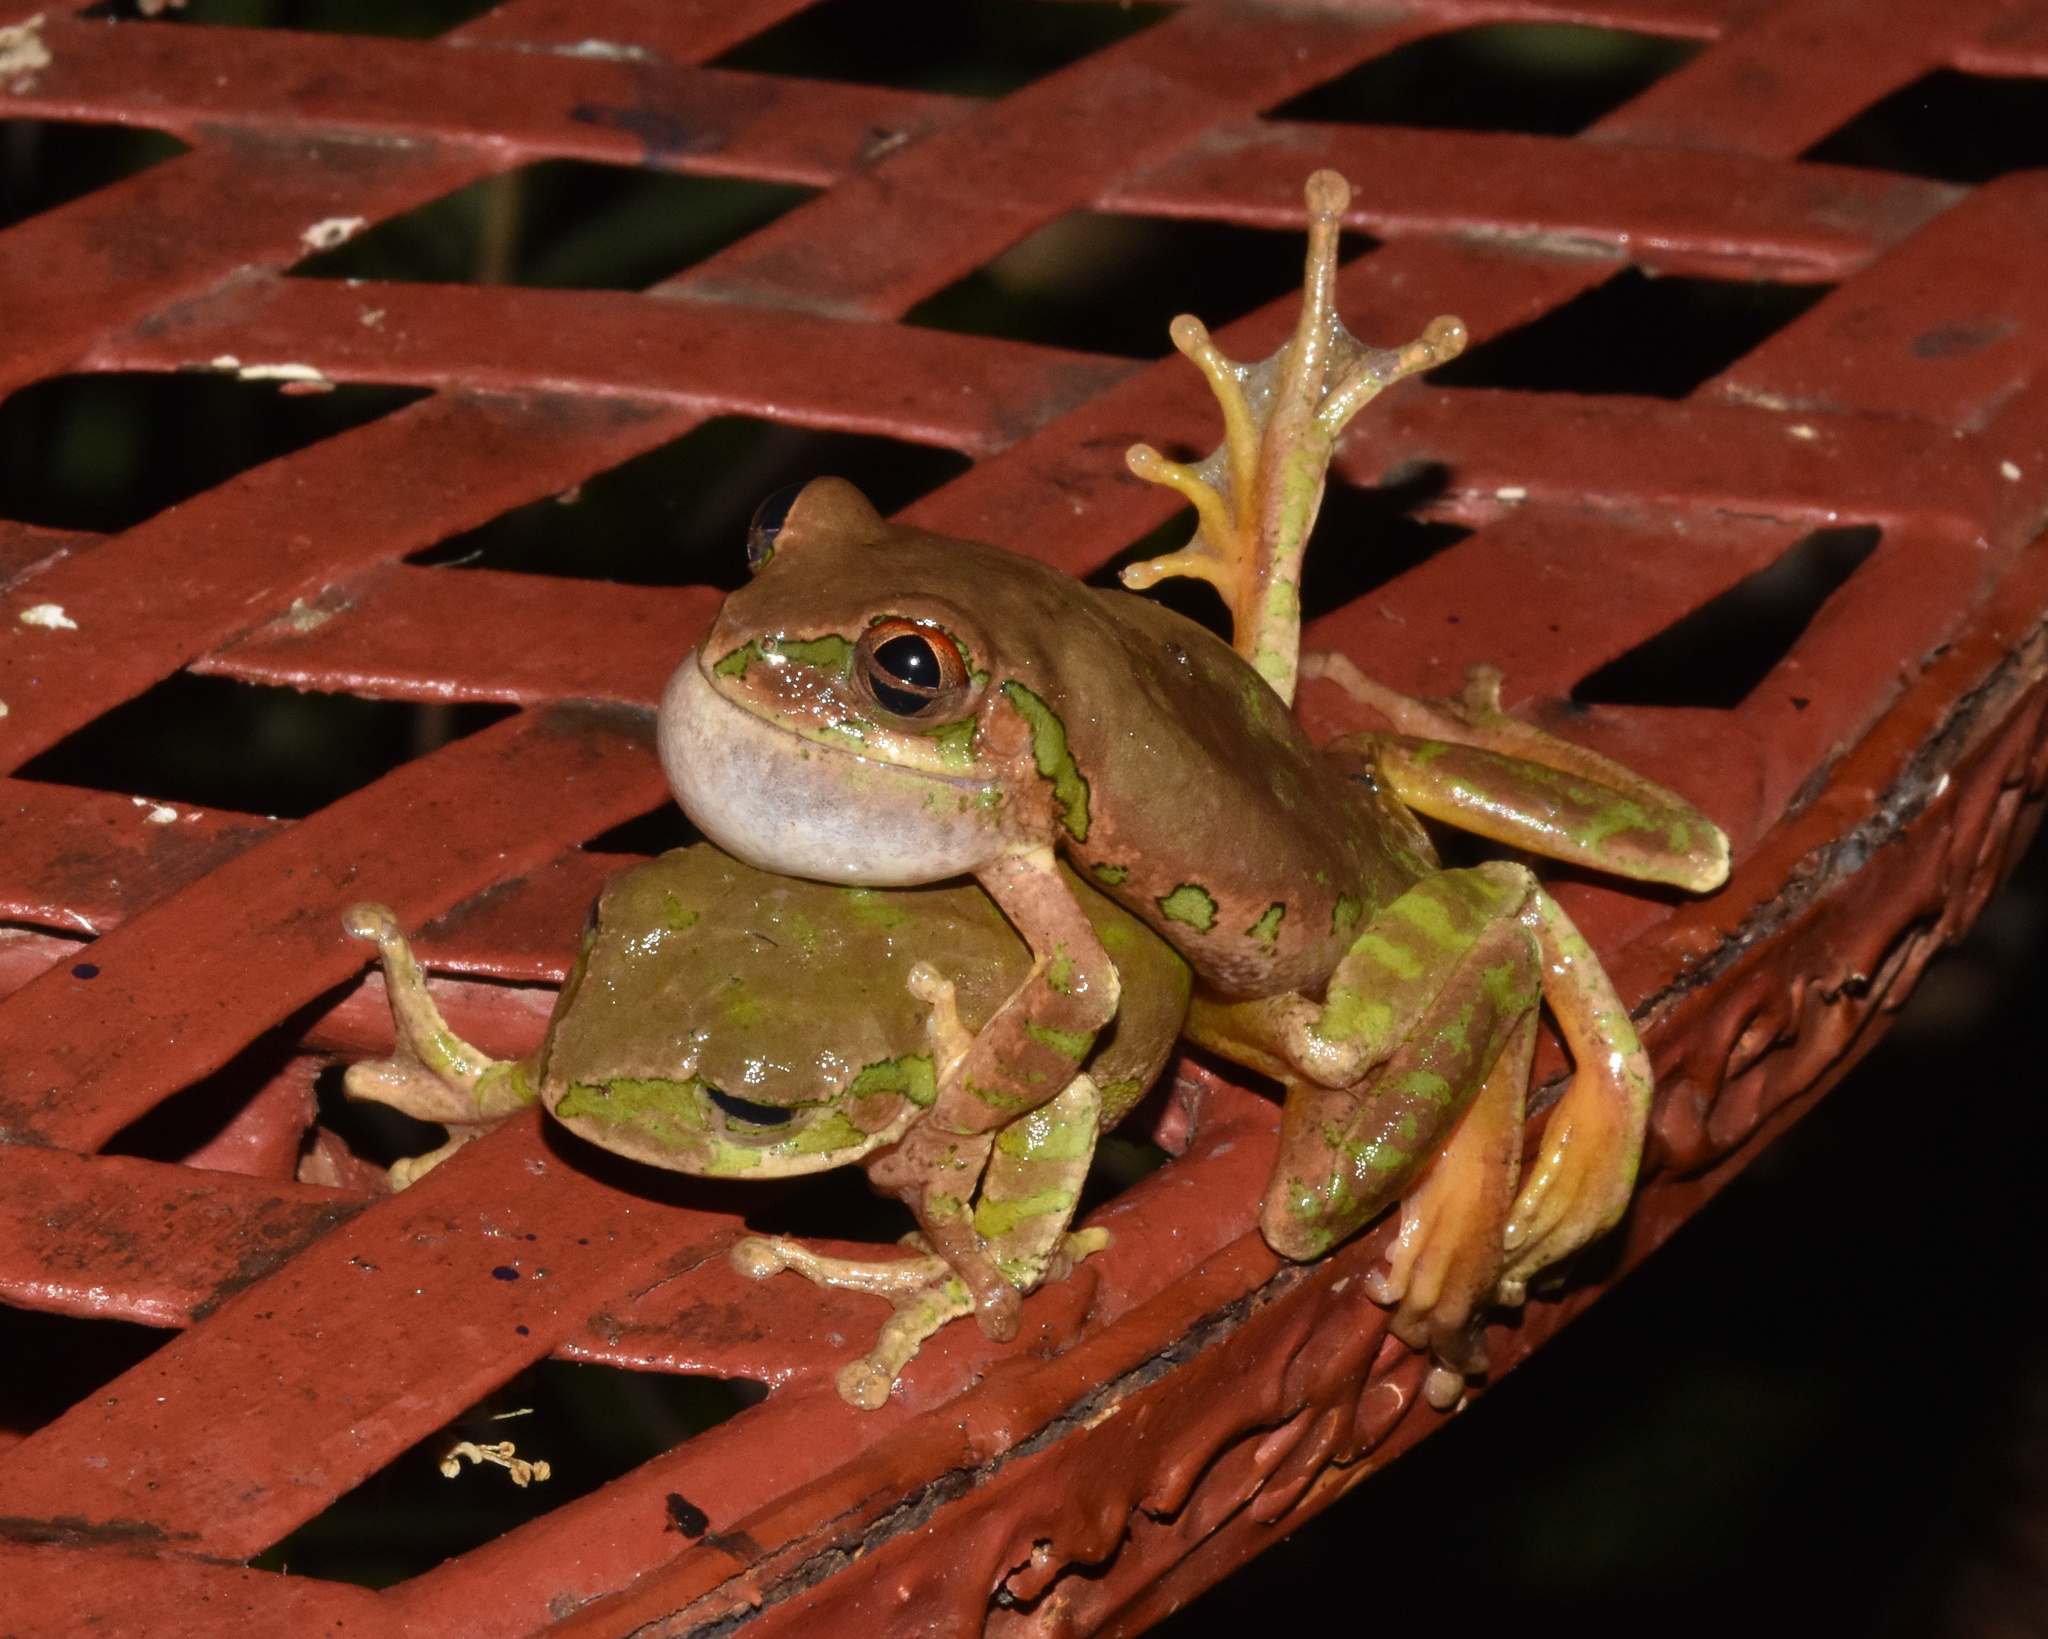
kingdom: Animalia
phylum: Chordata
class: Amphibia
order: Anura
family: Arthroleptidae
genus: Leptopelis
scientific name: Leptopelis natalensis
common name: Natal tree frog
